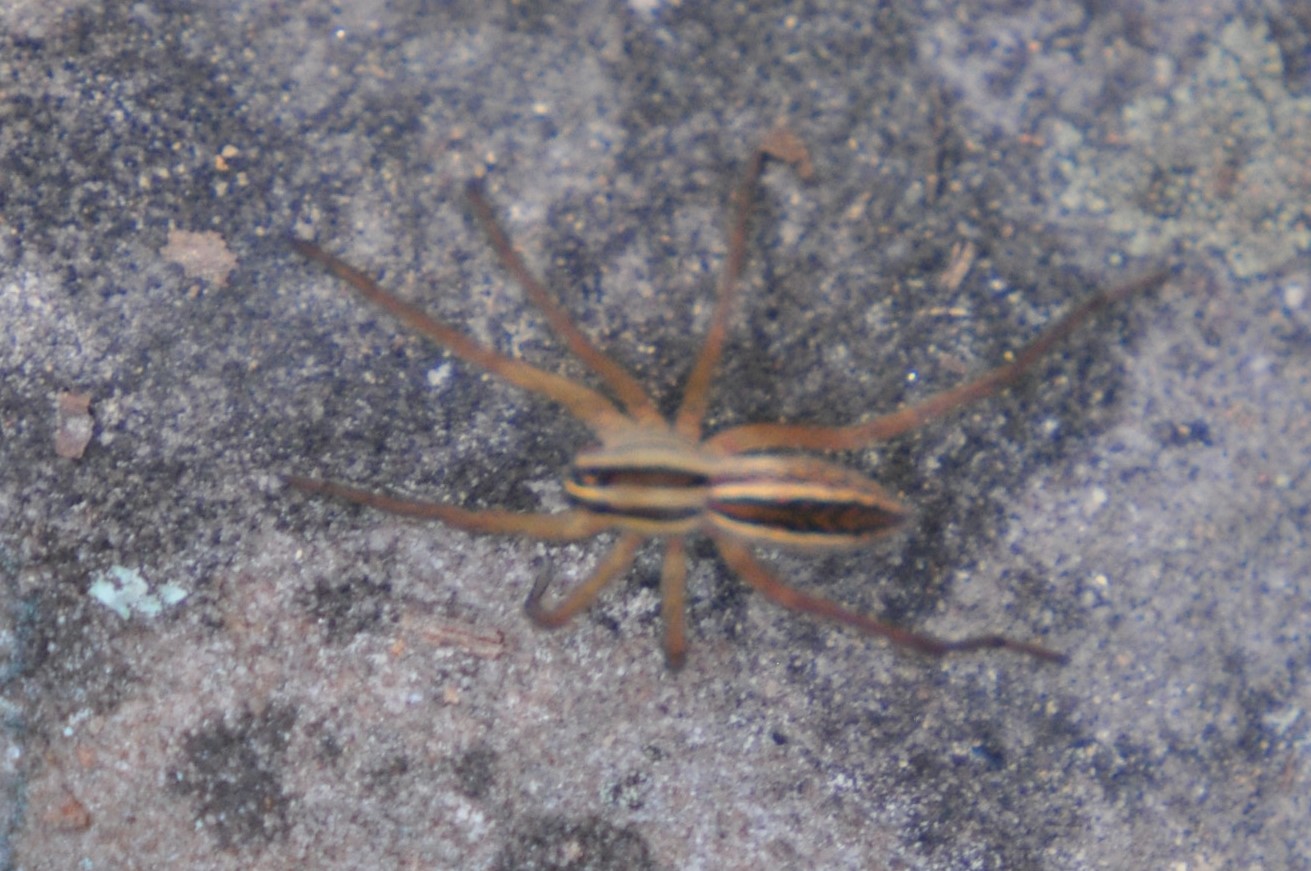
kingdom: Animalia
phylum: Arthropoda
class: Arachnida
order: Araneae
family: Lycosidae
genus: Rabidosa
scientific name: Rabidosa rabida
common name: Rabid wolf spider
